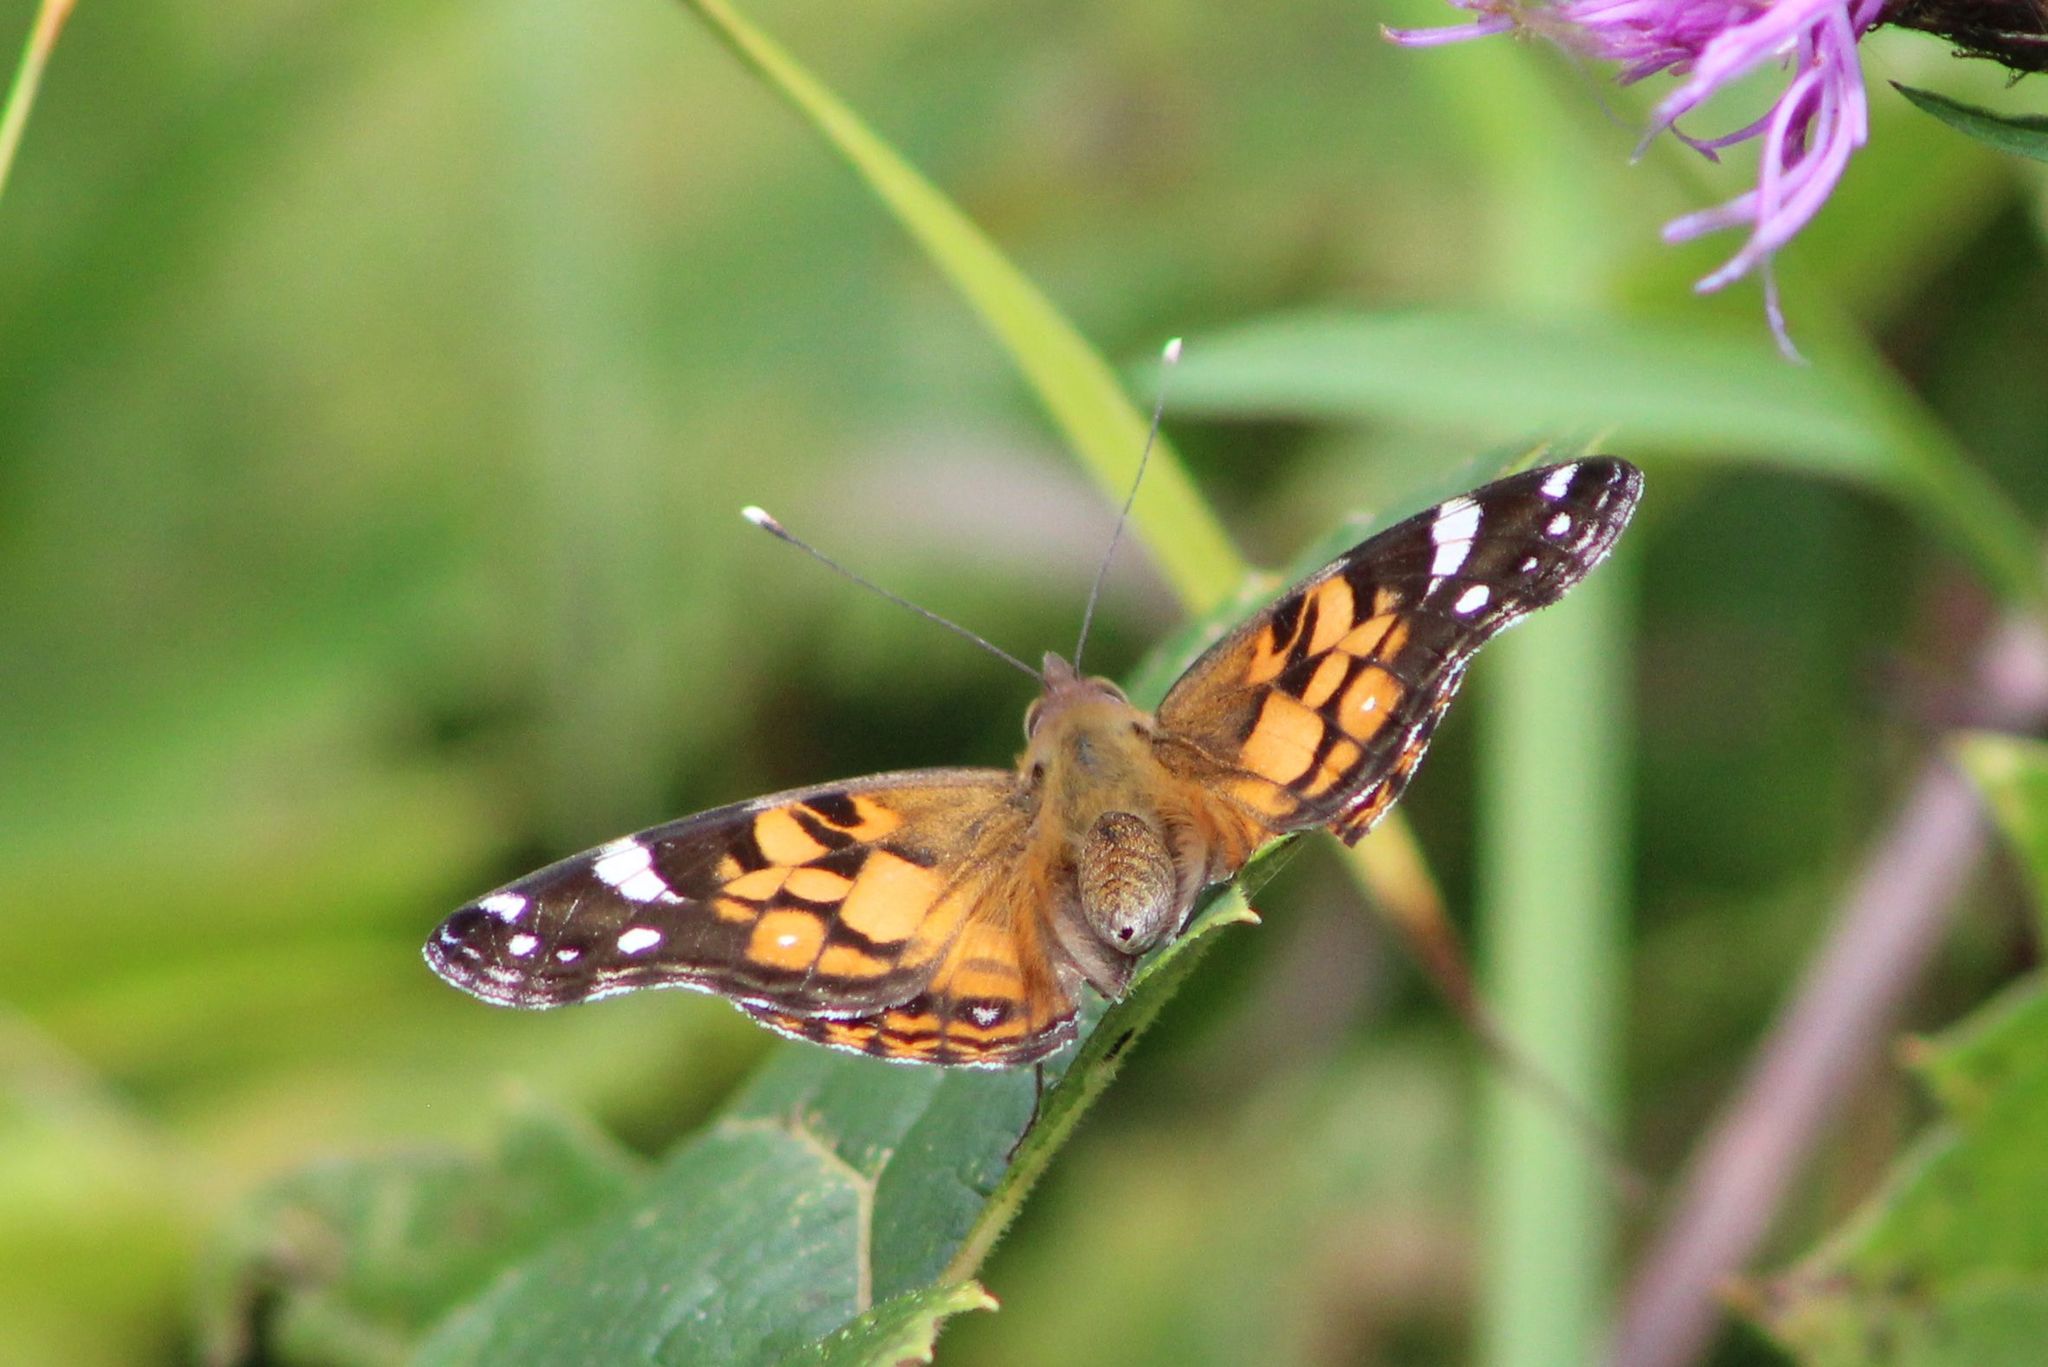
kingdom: Animalia
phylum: Arthropoda
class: Insecta
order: Lepidoptera
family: Nymphalidae
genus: Vanessa
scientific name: Vanessa virginiensis
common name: American lady
